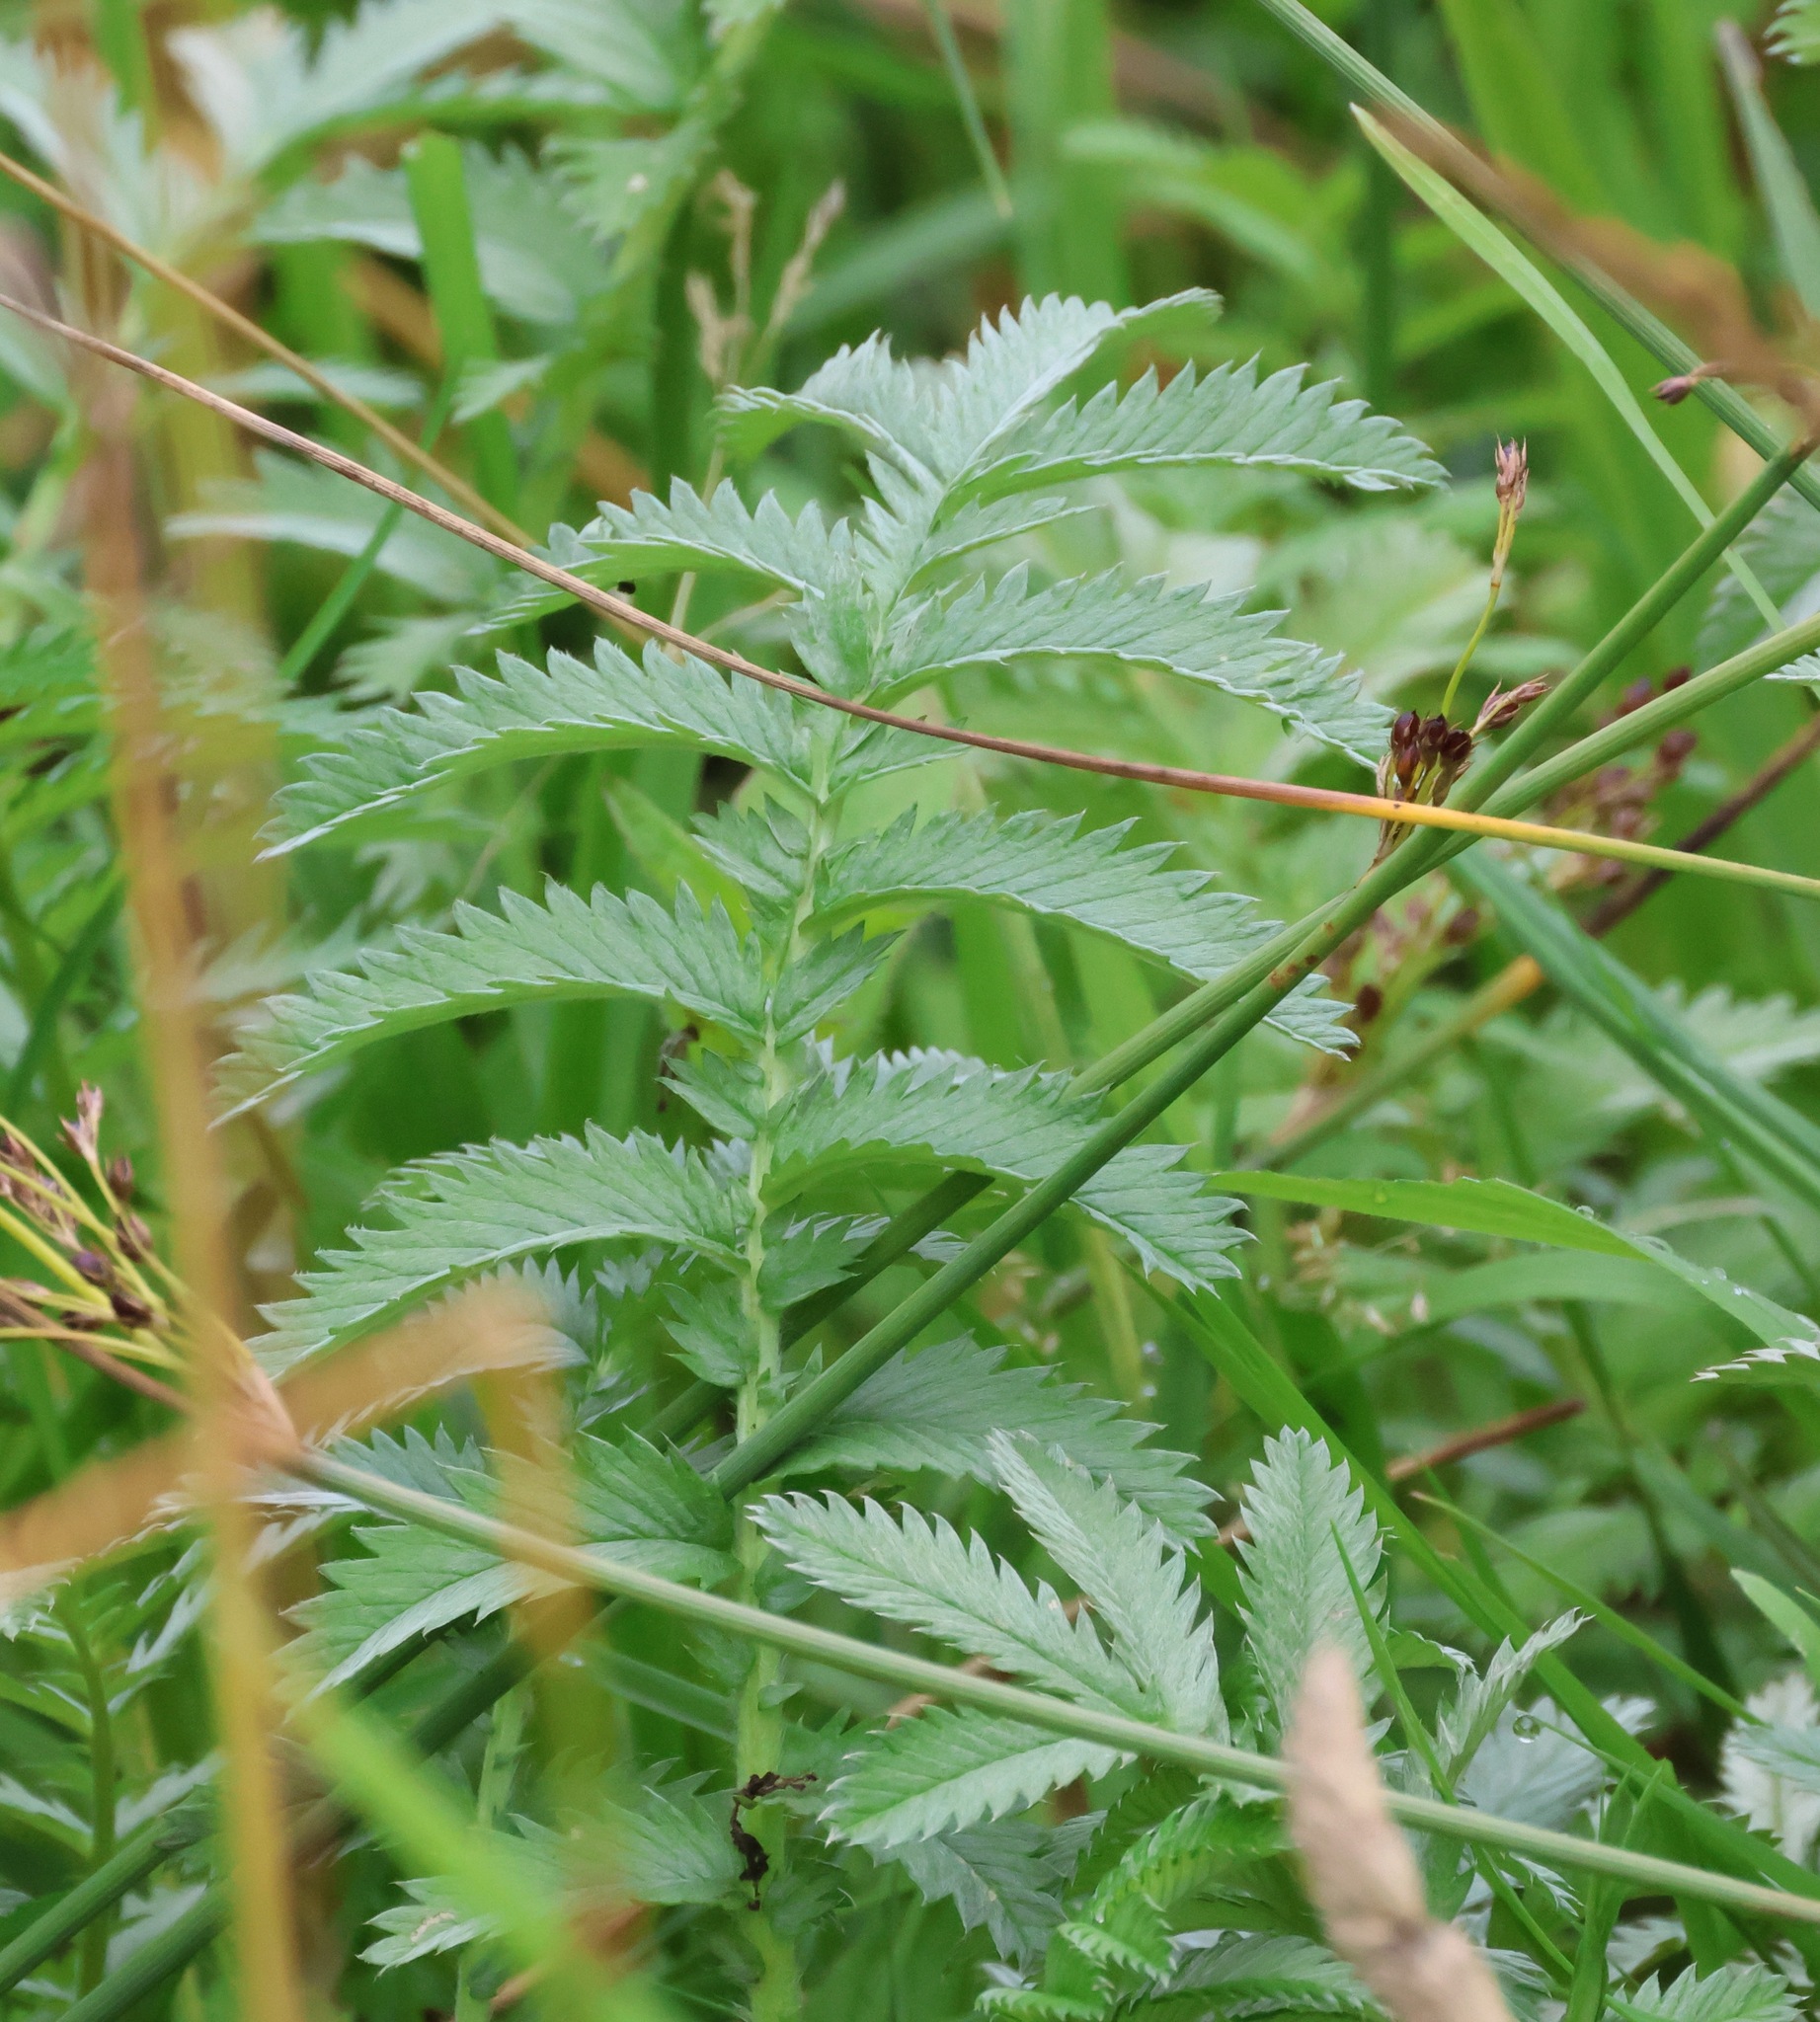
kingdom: Plantae
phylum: Tracheophyta
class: Magnoliopsida
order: Rosales
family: Rosaceae
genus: Argentina
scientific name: Argentina anserina
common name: Common silverweed
